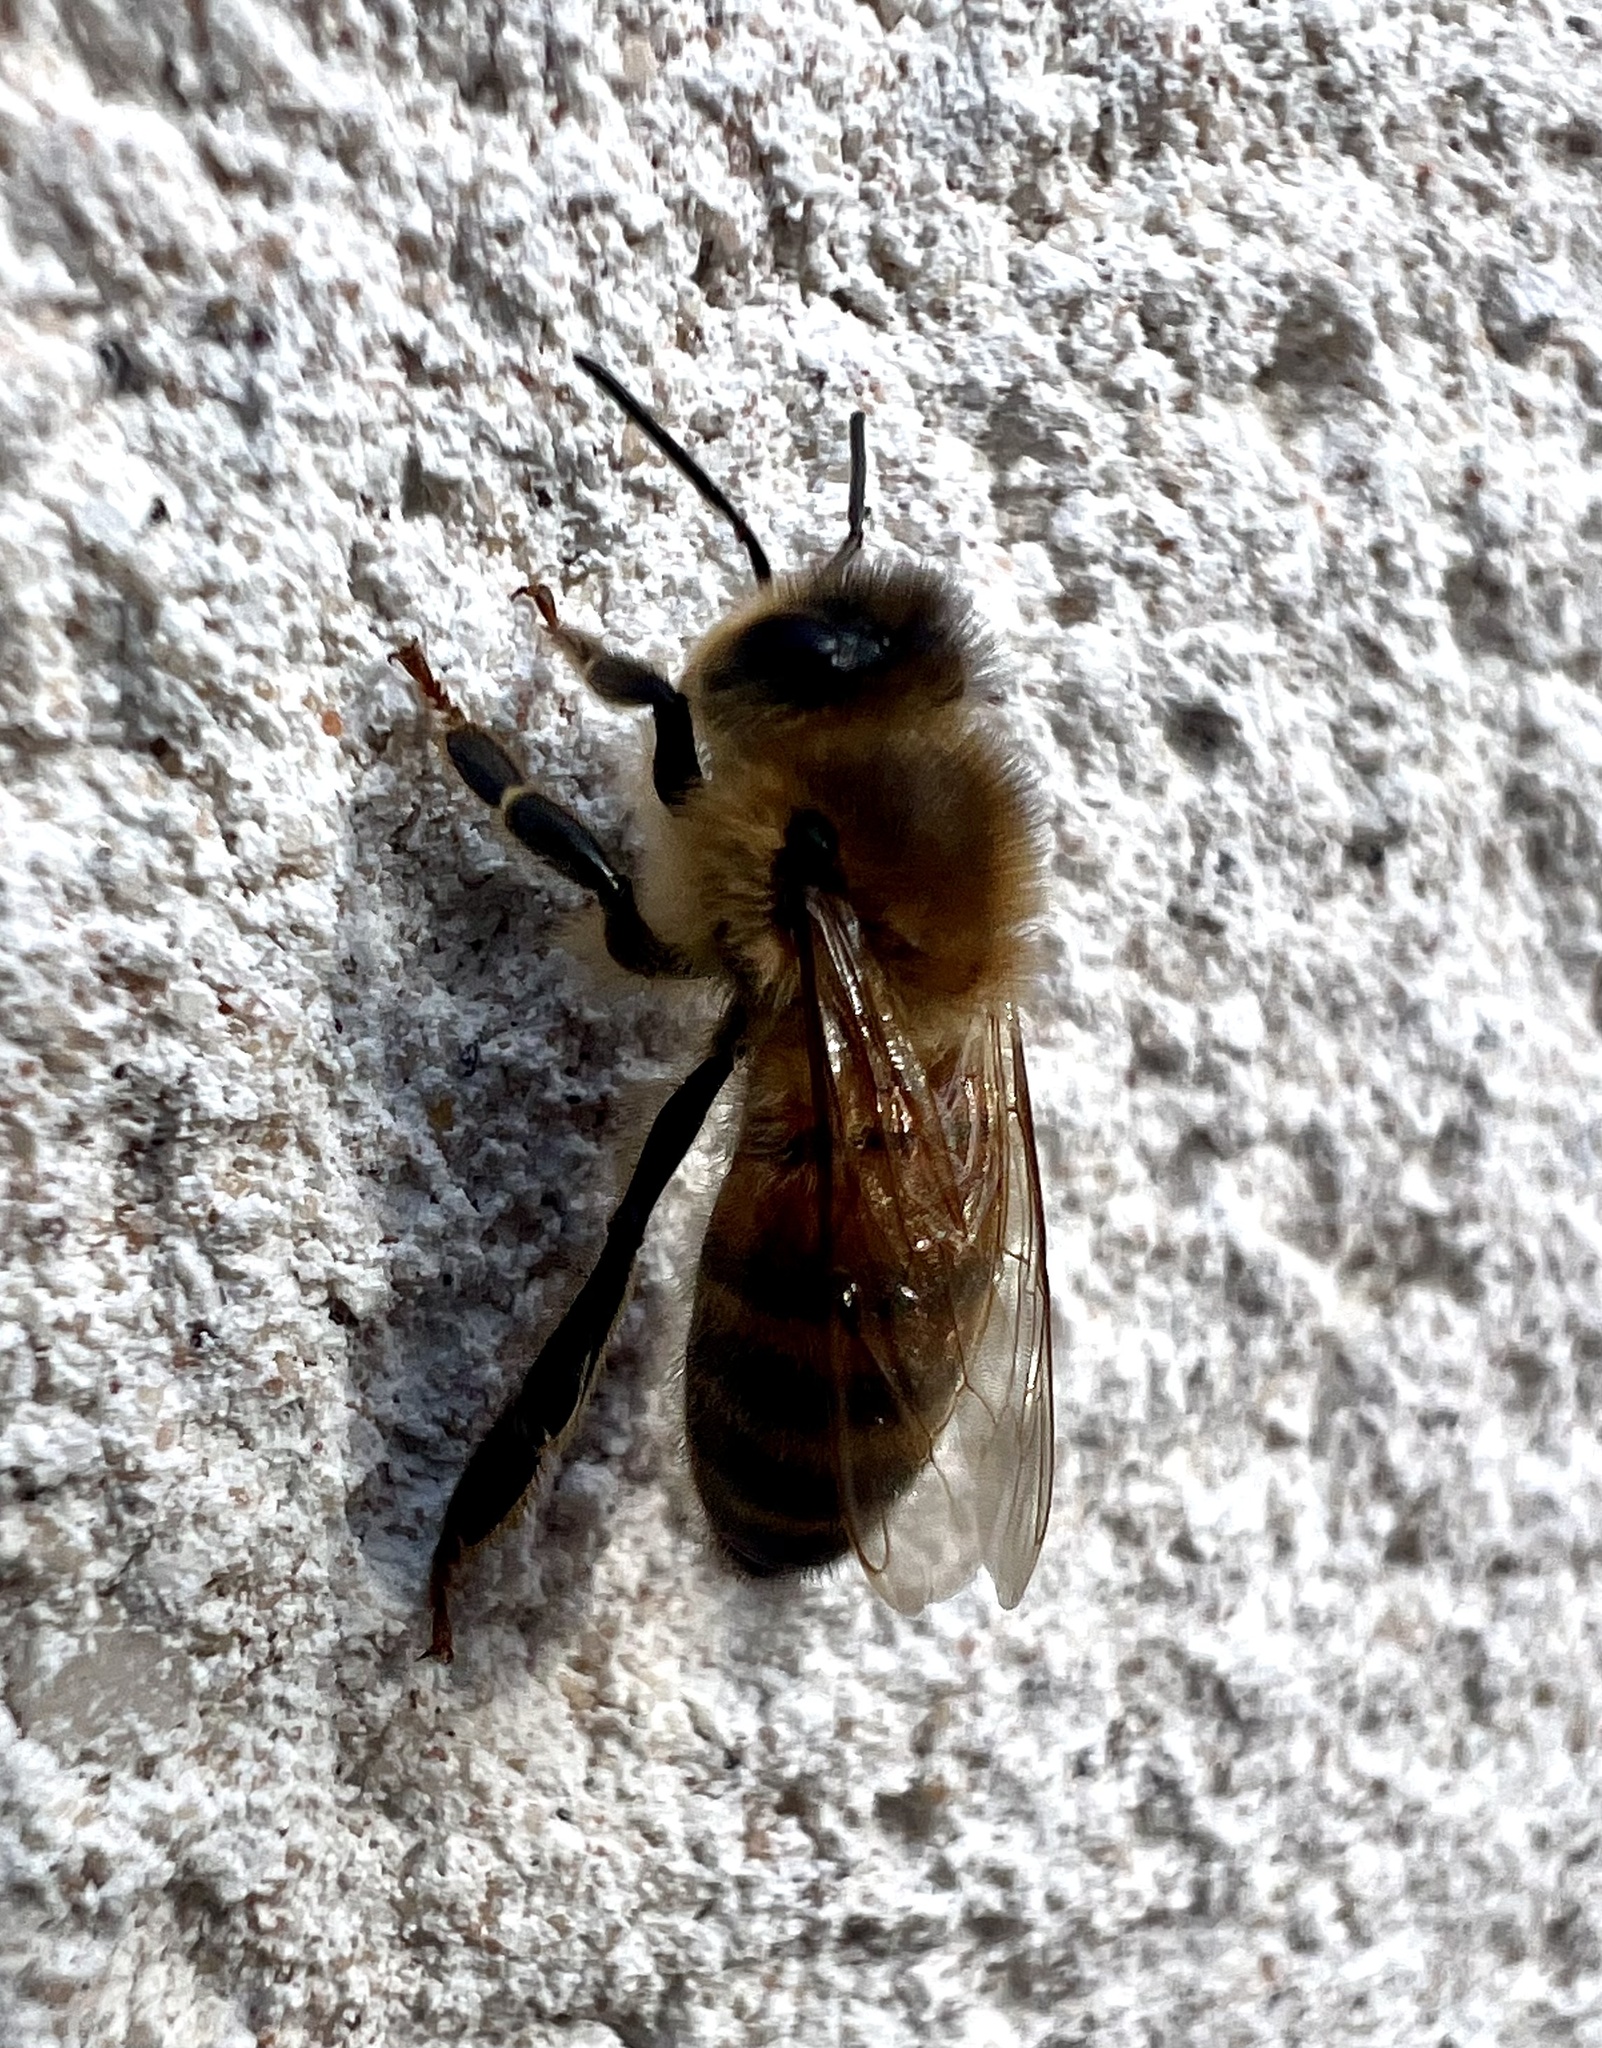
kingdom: Animalia
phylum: Arthropoda
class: Insecta
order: Hymenoptera
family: Apidae
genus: Apis
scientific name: Apis mellifera
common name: Honey bee
